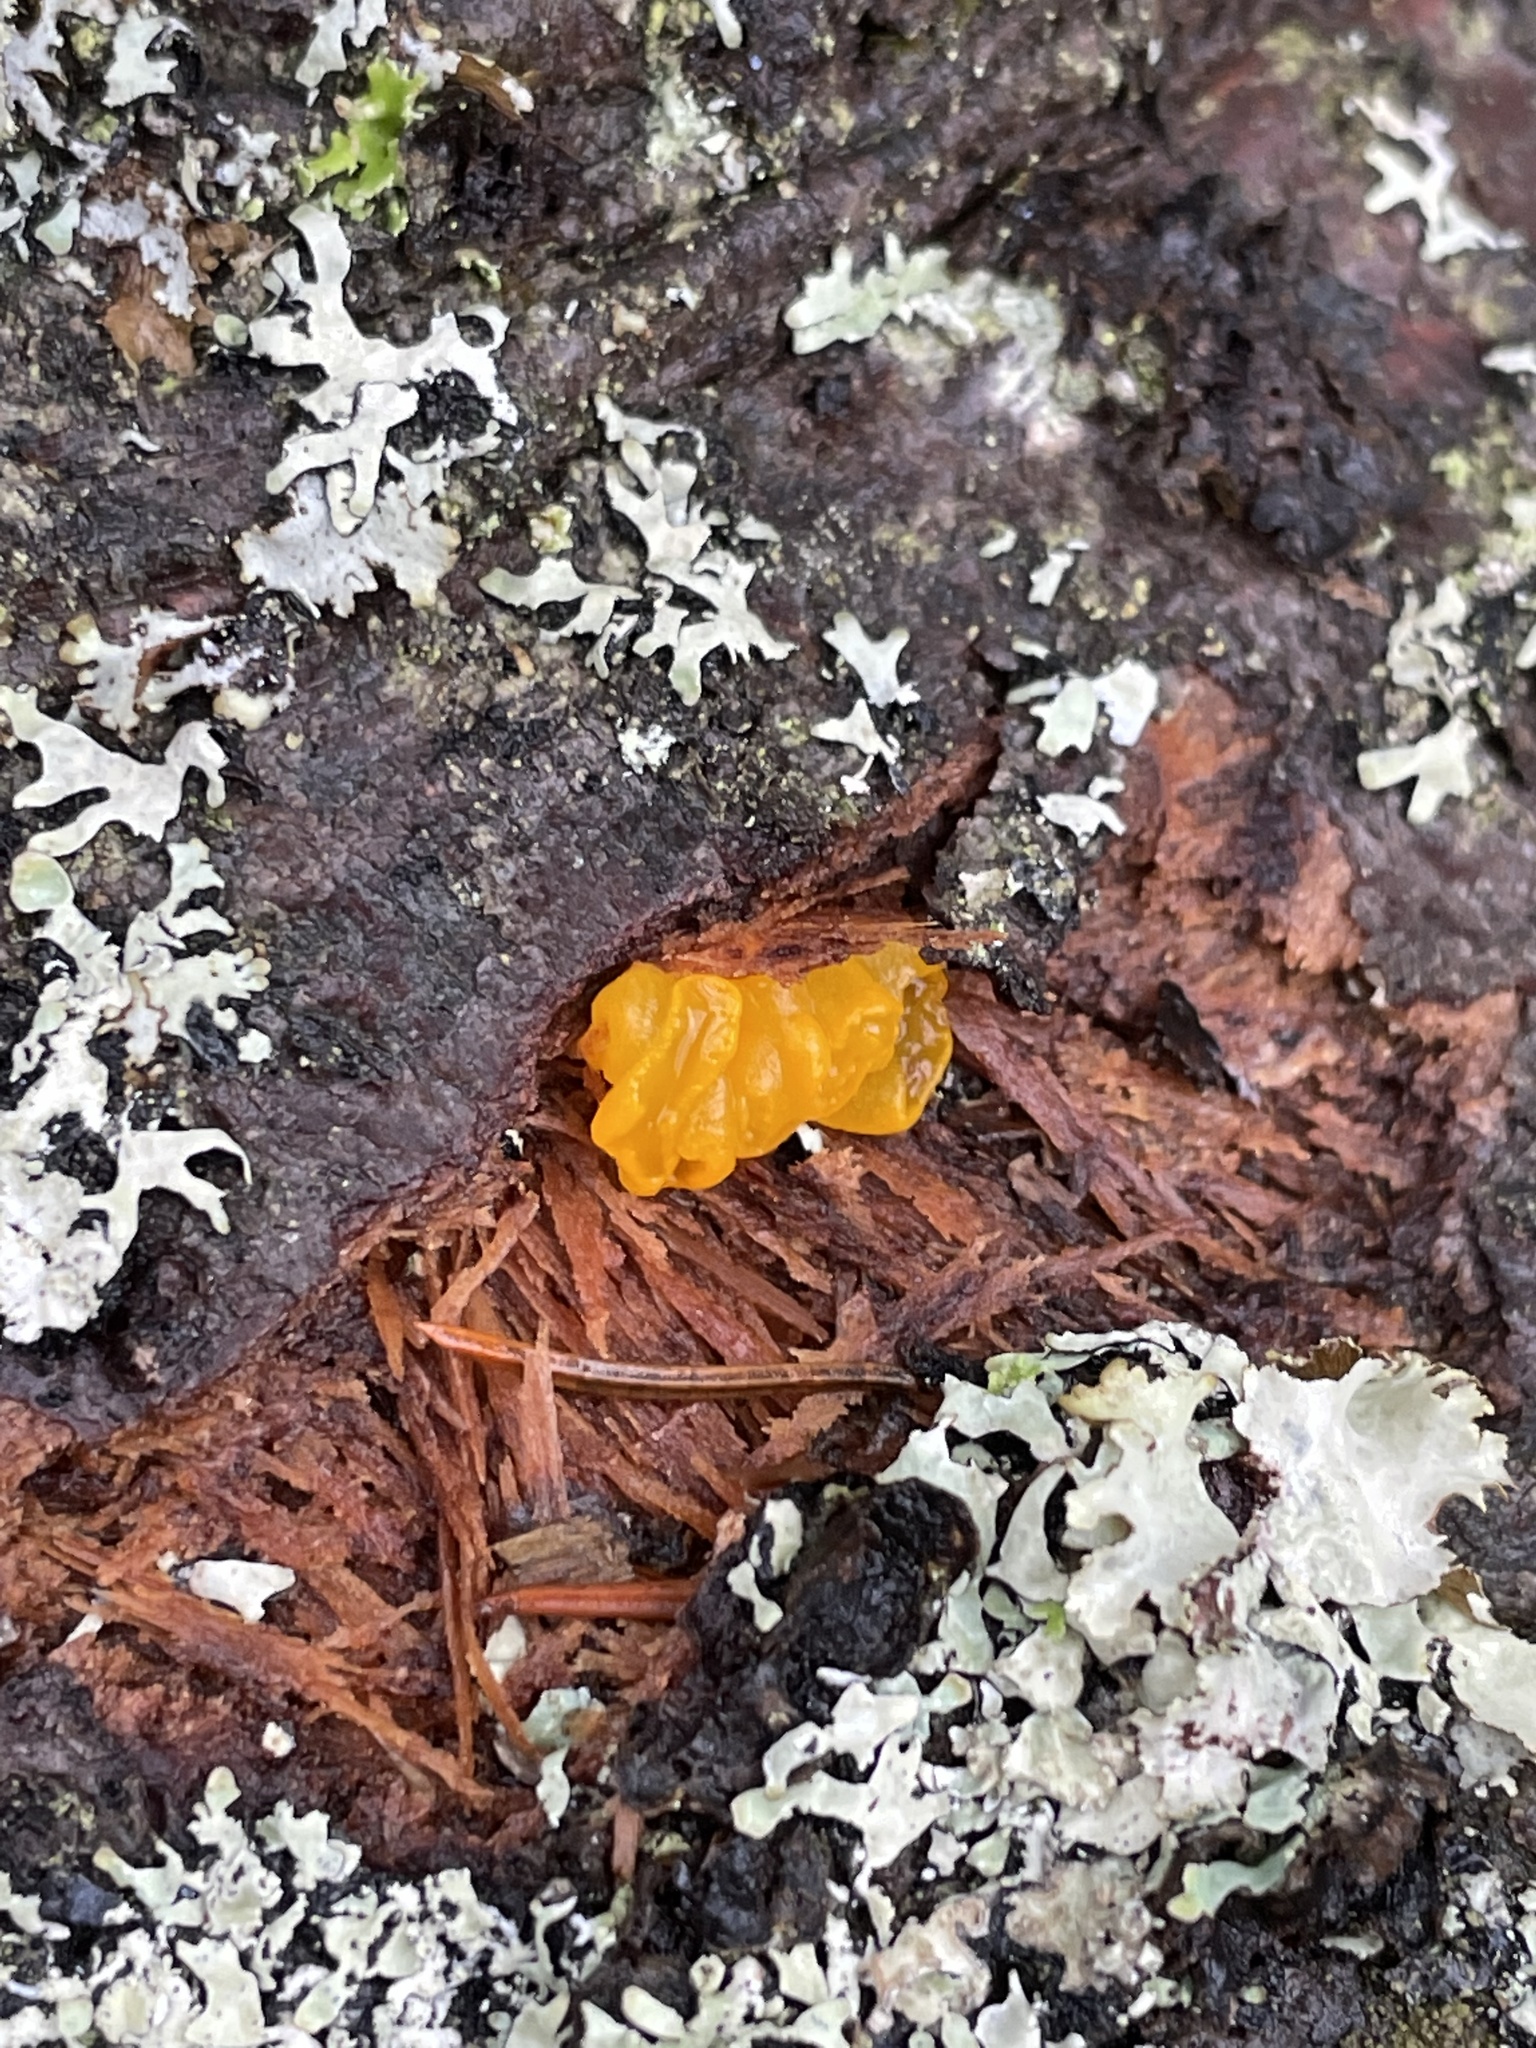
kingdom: Fungi
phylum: Basidiomycota
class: Dacrymycetes
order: Dacrymycetales
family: Dacrymycetaceae
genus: Dacrymyces
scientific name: Dacrymyces chrysospermus
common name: Orange jelly spot
